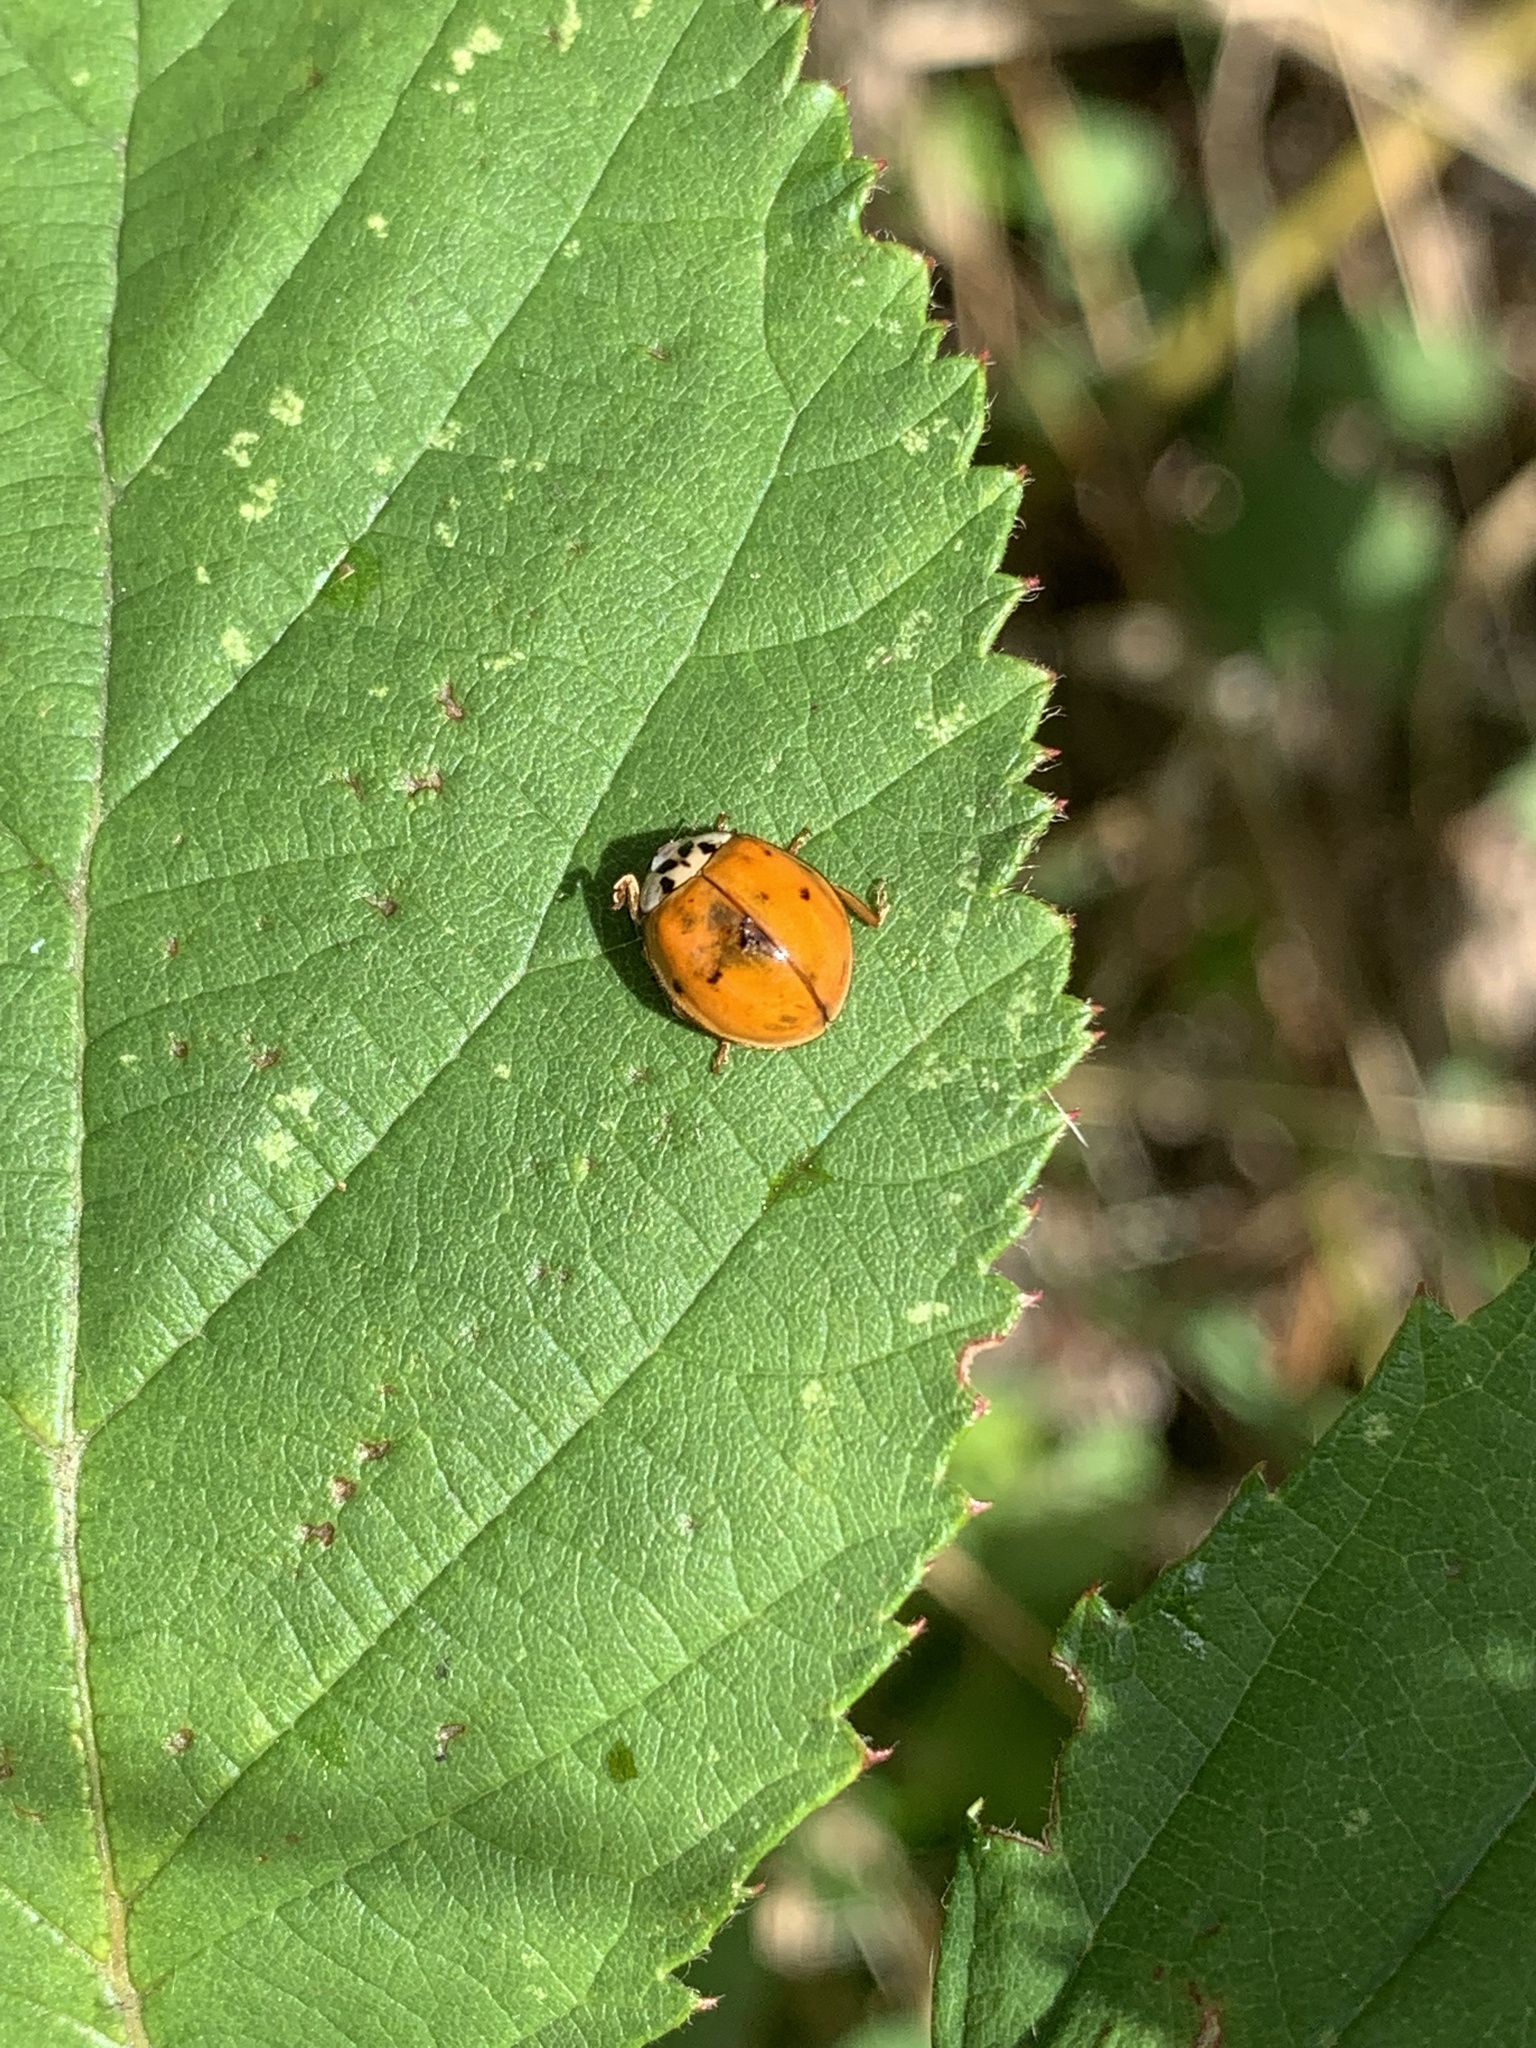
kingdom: Animalia
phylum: Arthropoda
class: Insecta
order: Coleoptera
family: Coccinellidae
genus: Harmonia
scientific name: Harmonia axyridis
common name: Harlequin ladybird
